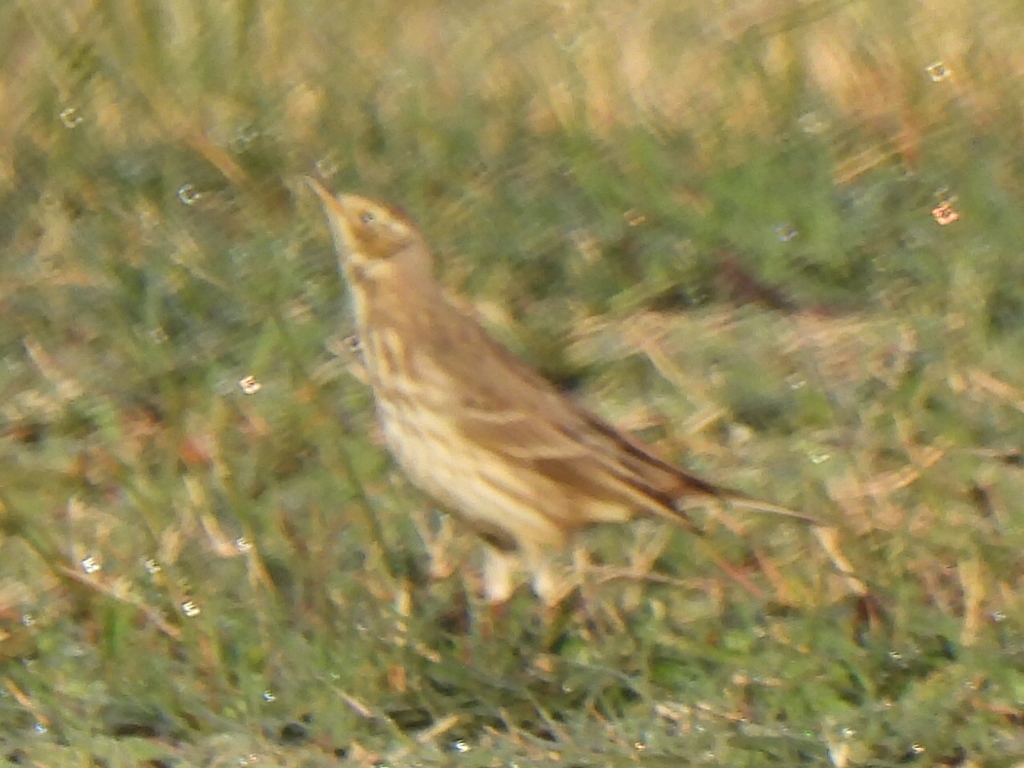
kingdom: Animalia
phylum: Chordata
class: Aves
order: Passeriformes
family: Motacillidae
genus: Anthus
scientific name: Anthus rubescens
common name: Buff-bellied pipit
